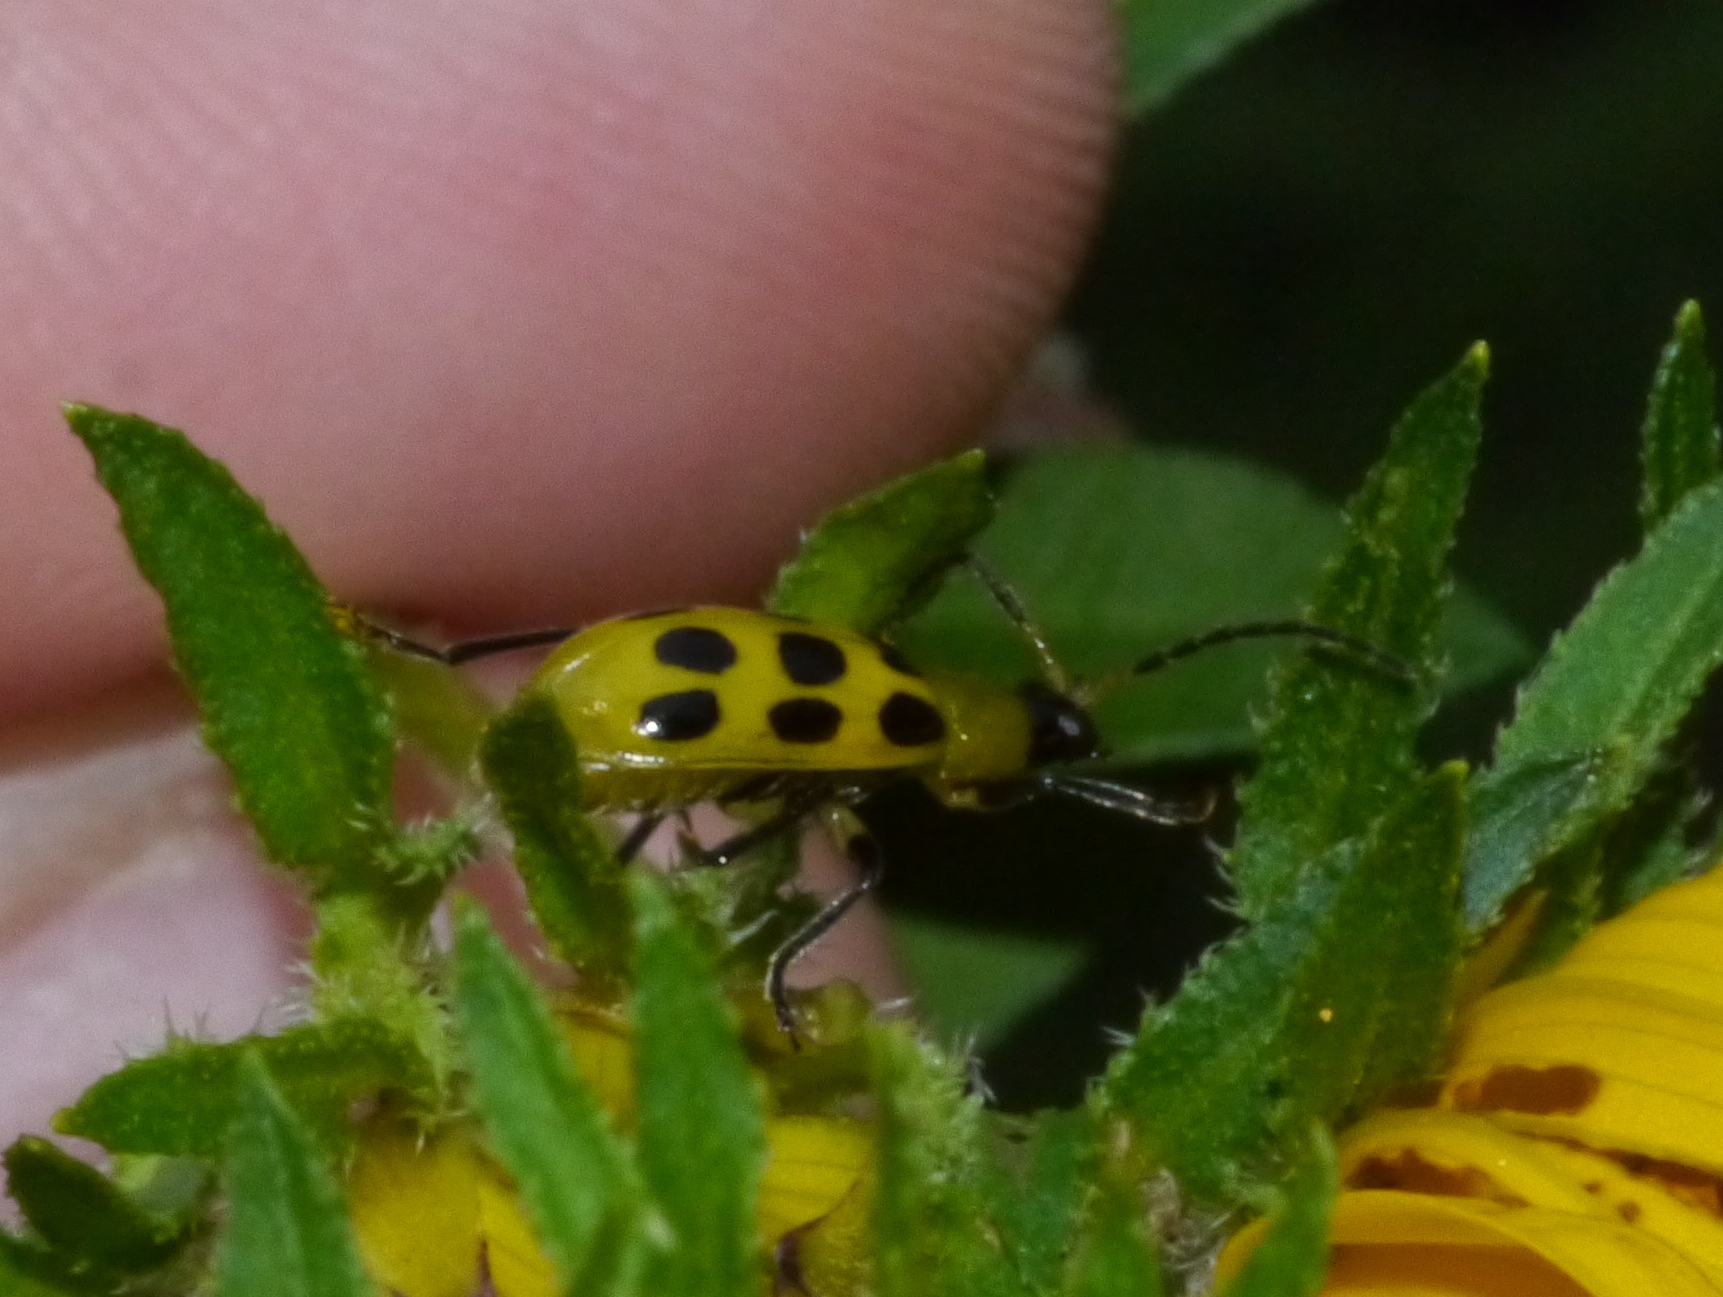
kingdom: Animalia
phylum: Arthropoda
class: Insecta
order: Coleoptera
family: Chrysomelidae
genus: Diabrotica
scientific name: Diabrotica undecimpunctata
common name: Spotted cucumber beetle
